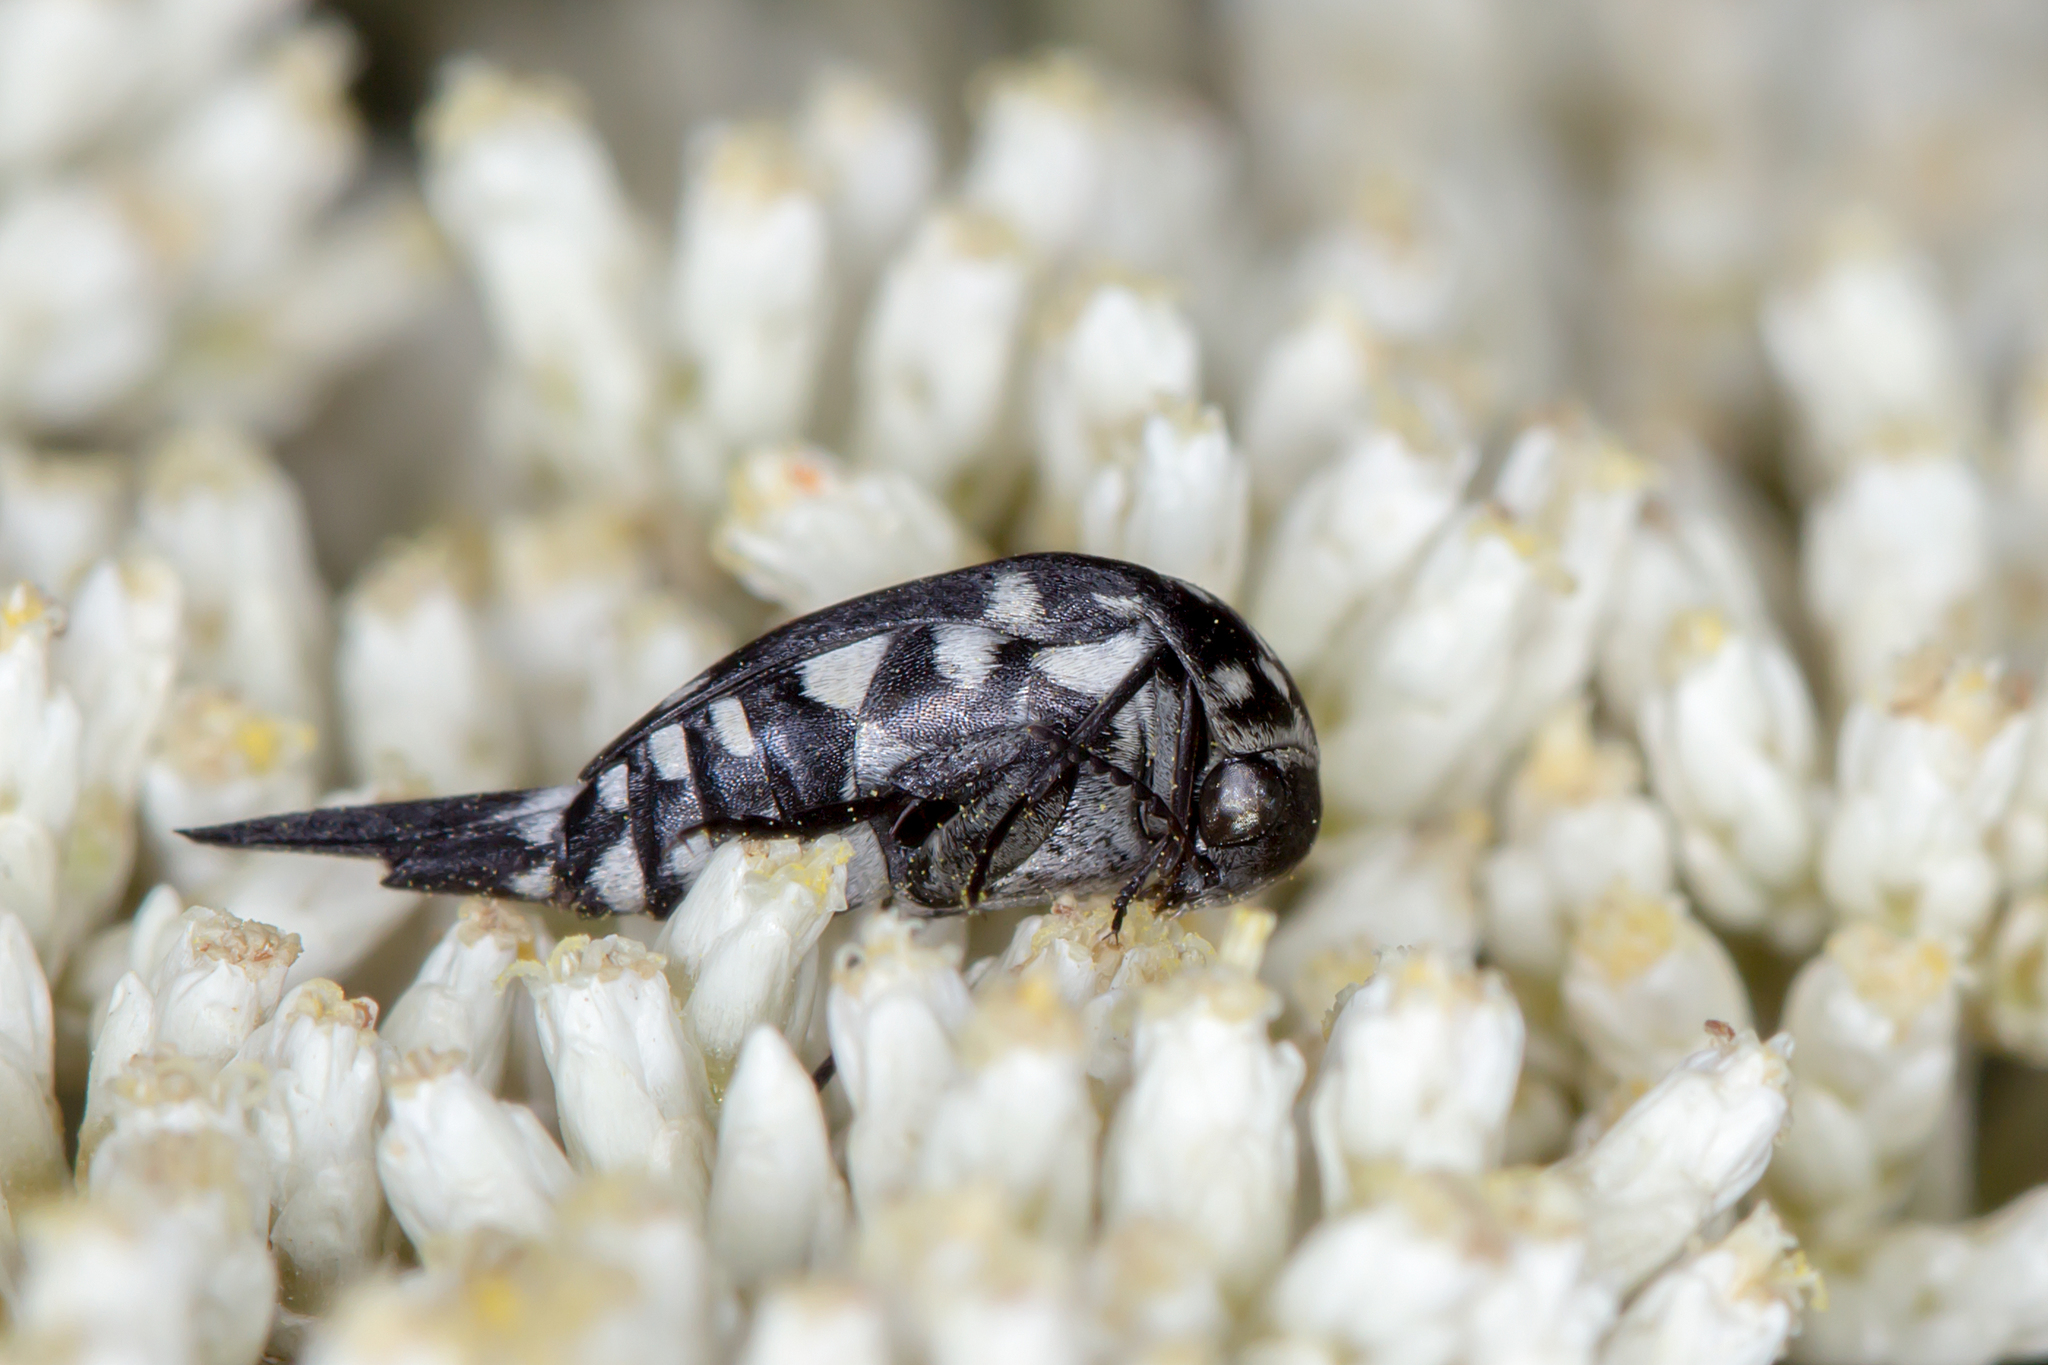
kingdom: Animalia
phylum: Arthropoda
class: Insecta
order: Coleoptera
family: Mordellidae
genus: Hoshihananomia
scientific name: Hoshihananomia
